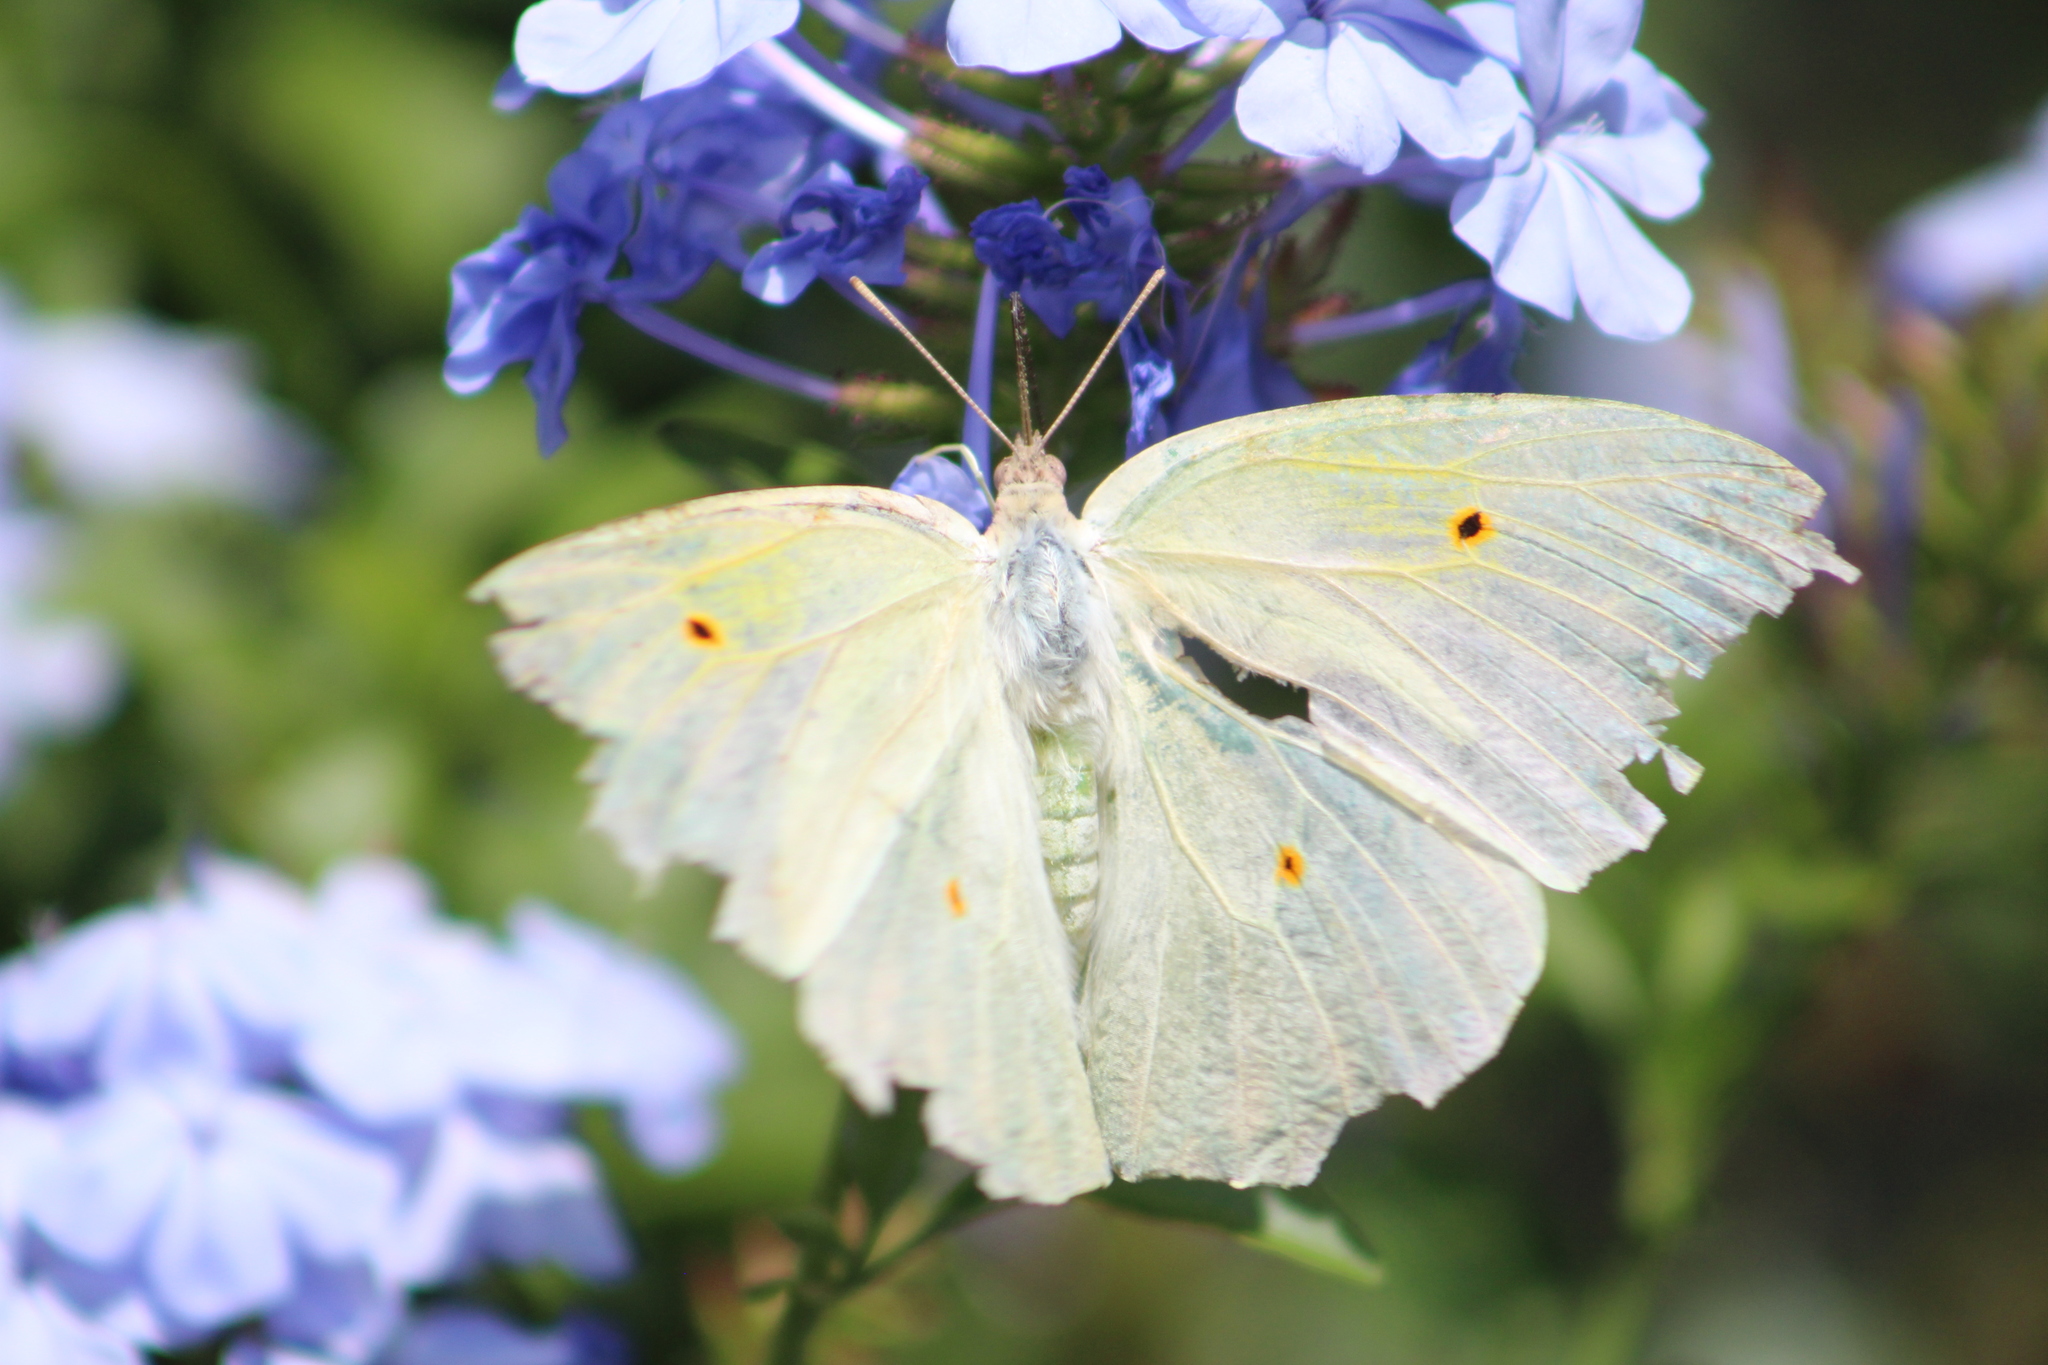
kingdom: Animalia
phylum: Arthropoda
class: Insecta
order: Lepidoptera
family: Pieridae
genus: Anteos
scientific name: Anteos clorinde
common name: White angled sulphur
